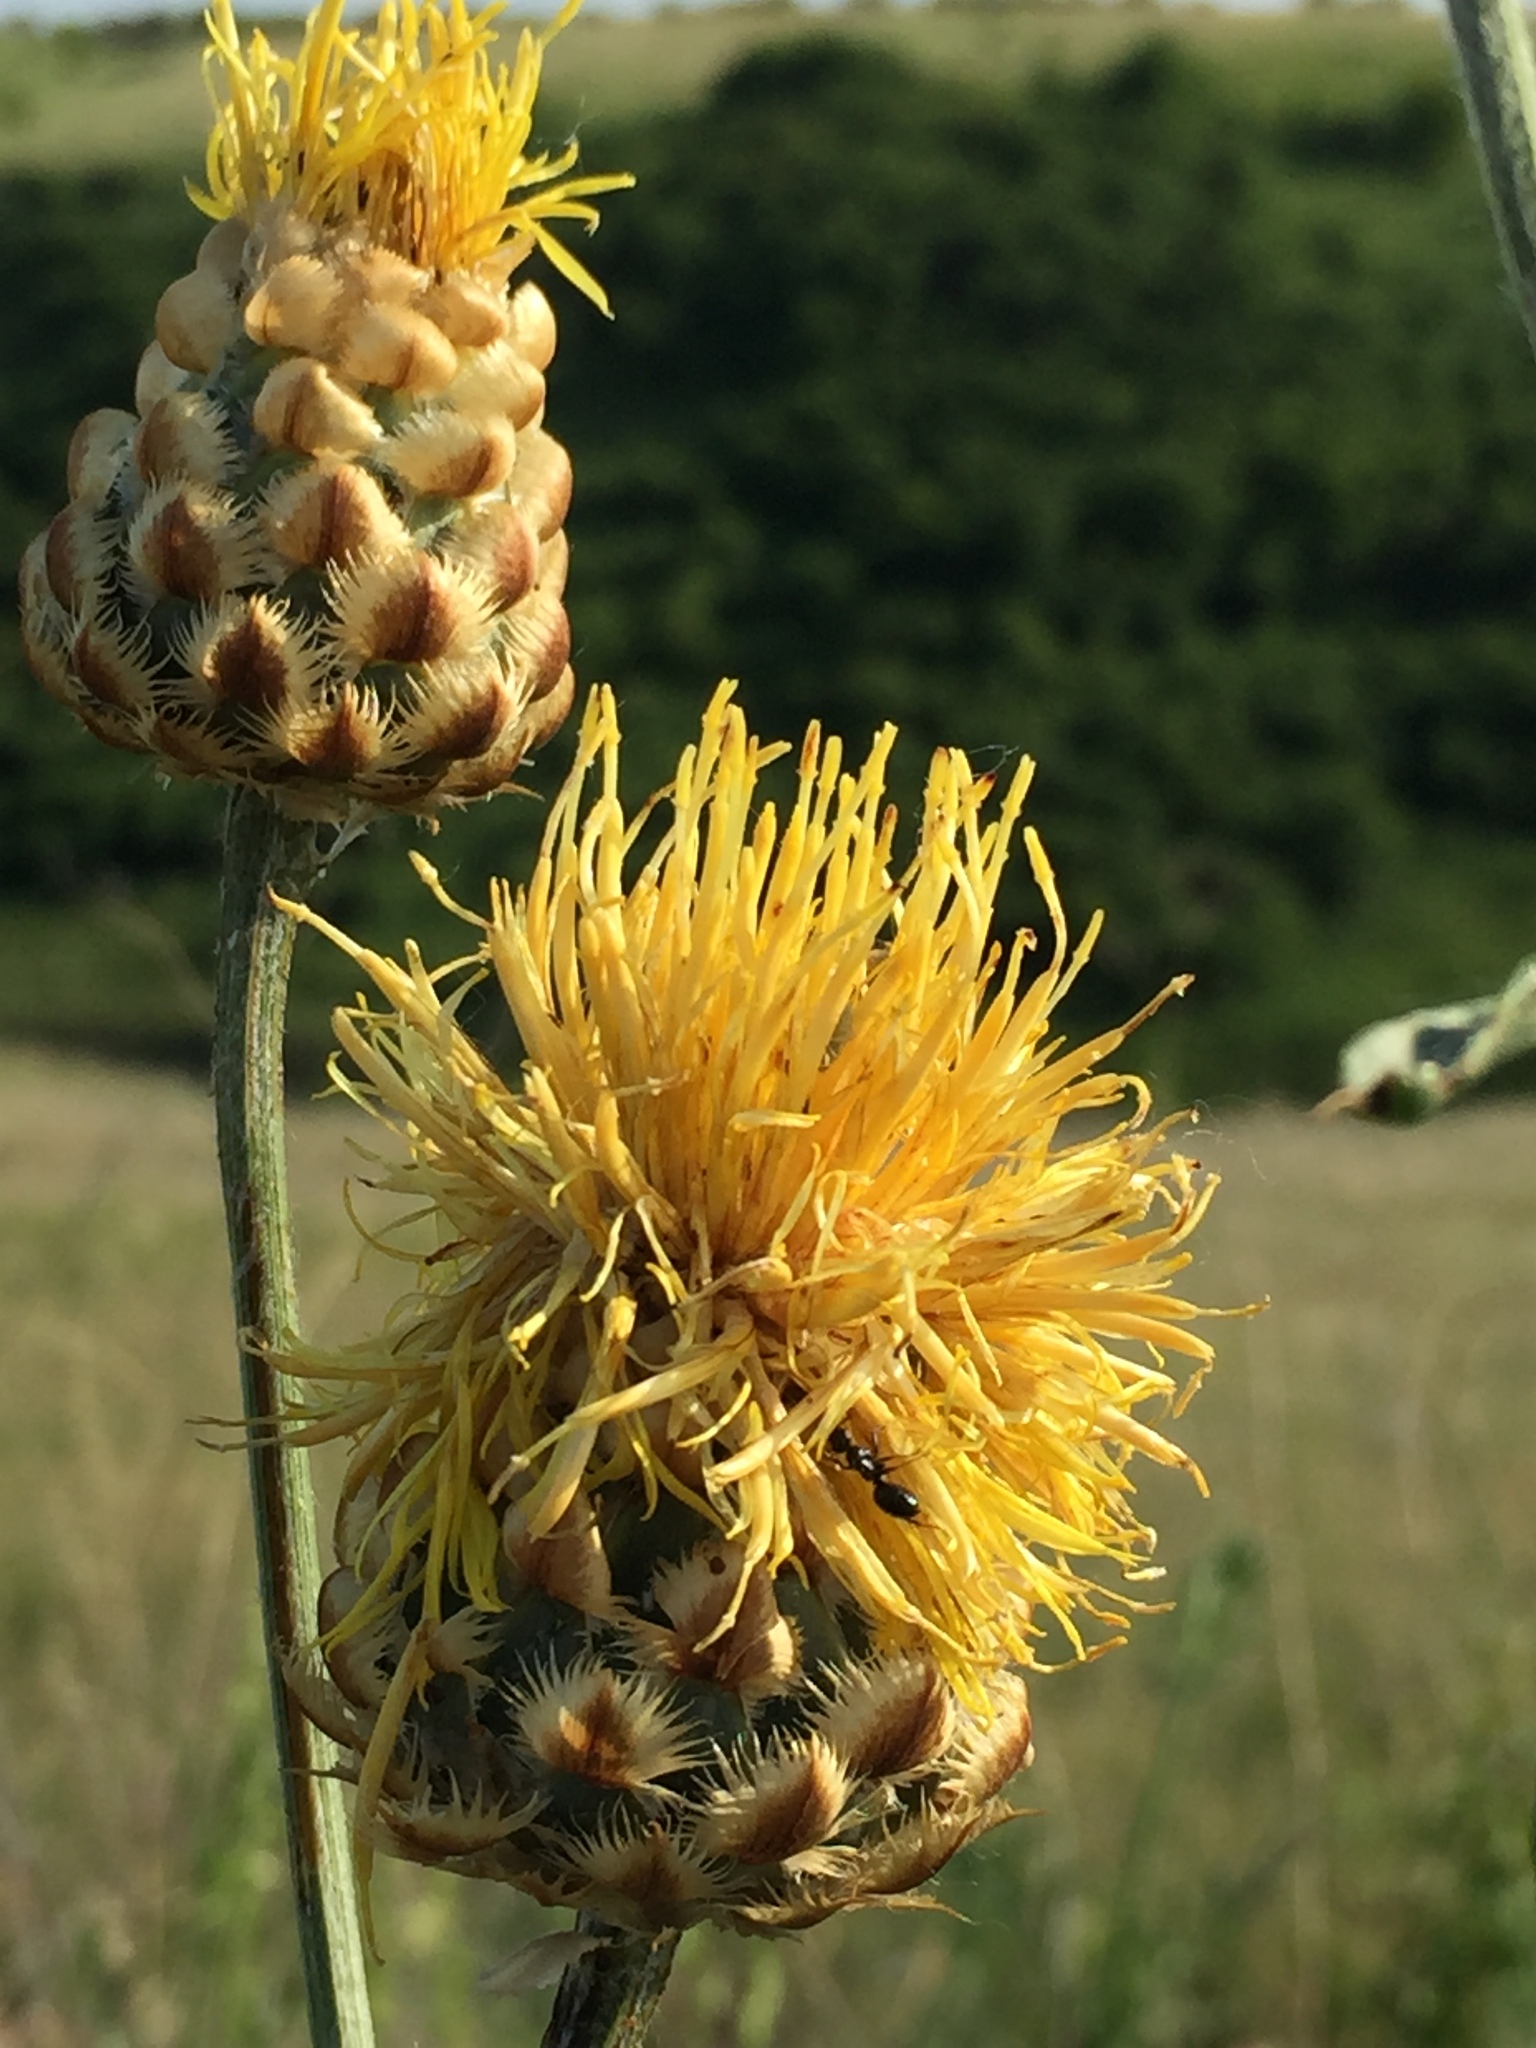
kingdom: Plantae
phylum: Tracheophyta
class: Magnoliopsida
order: Asterales
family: Asteraceae
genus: Centaurea
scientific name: Centaurea orientalis
